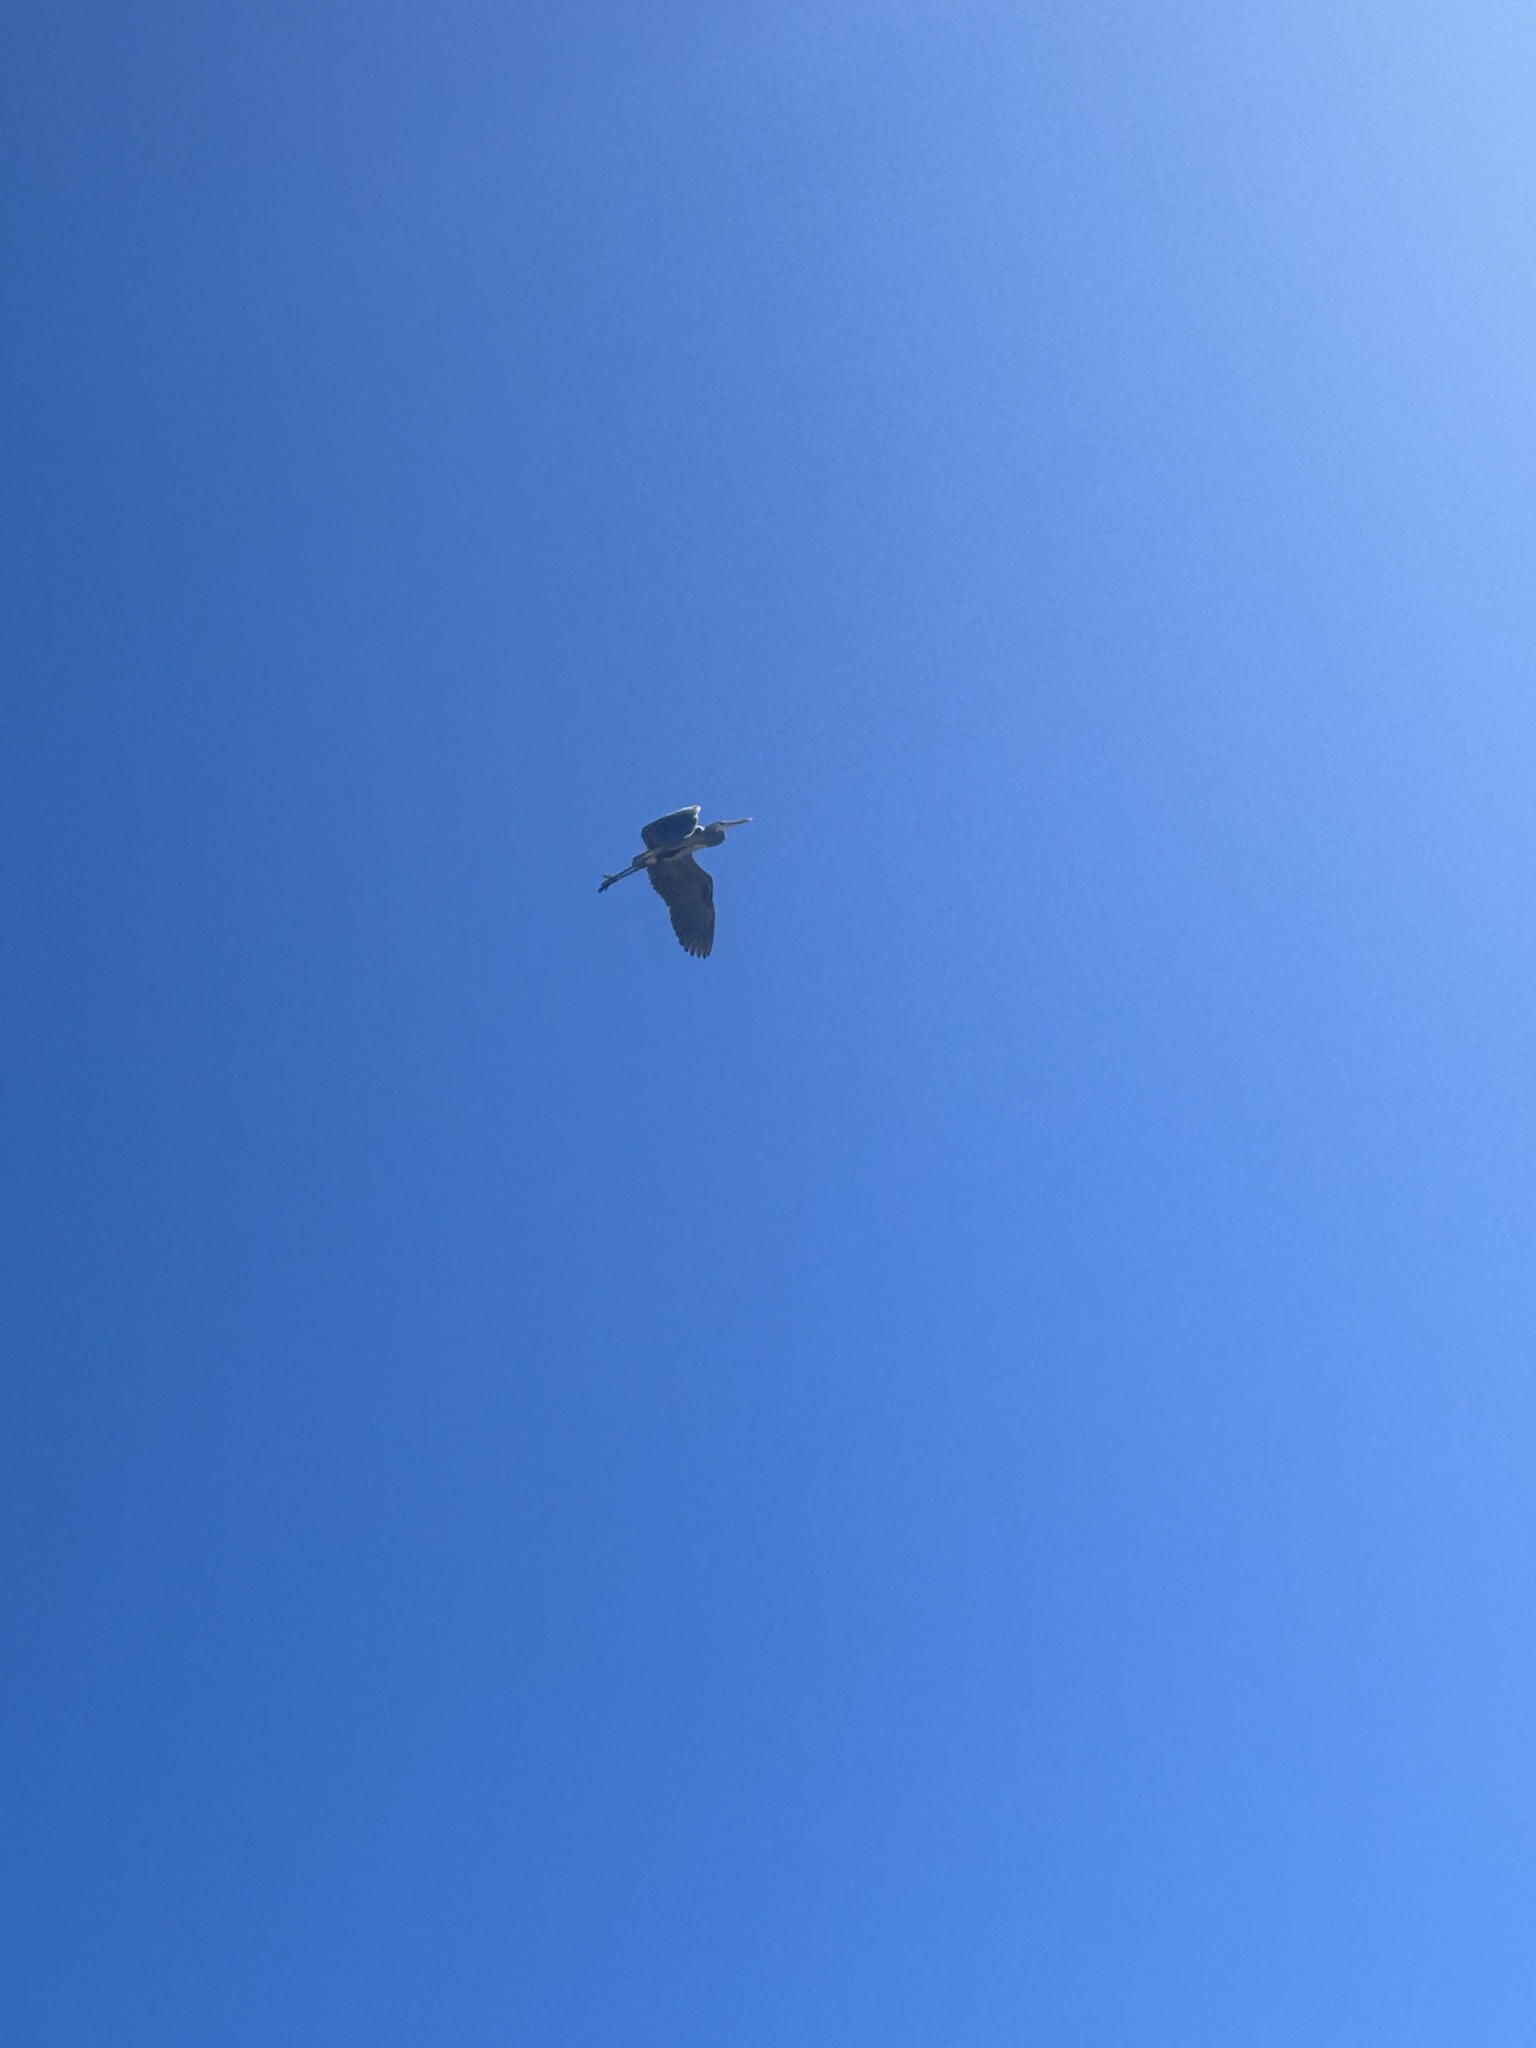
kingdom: Animalia
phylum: Chordata
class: Aves
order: Pelecaniformes
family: Ardeidae
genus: Ardea
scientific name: Ardea herodias
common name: Great blue heron
